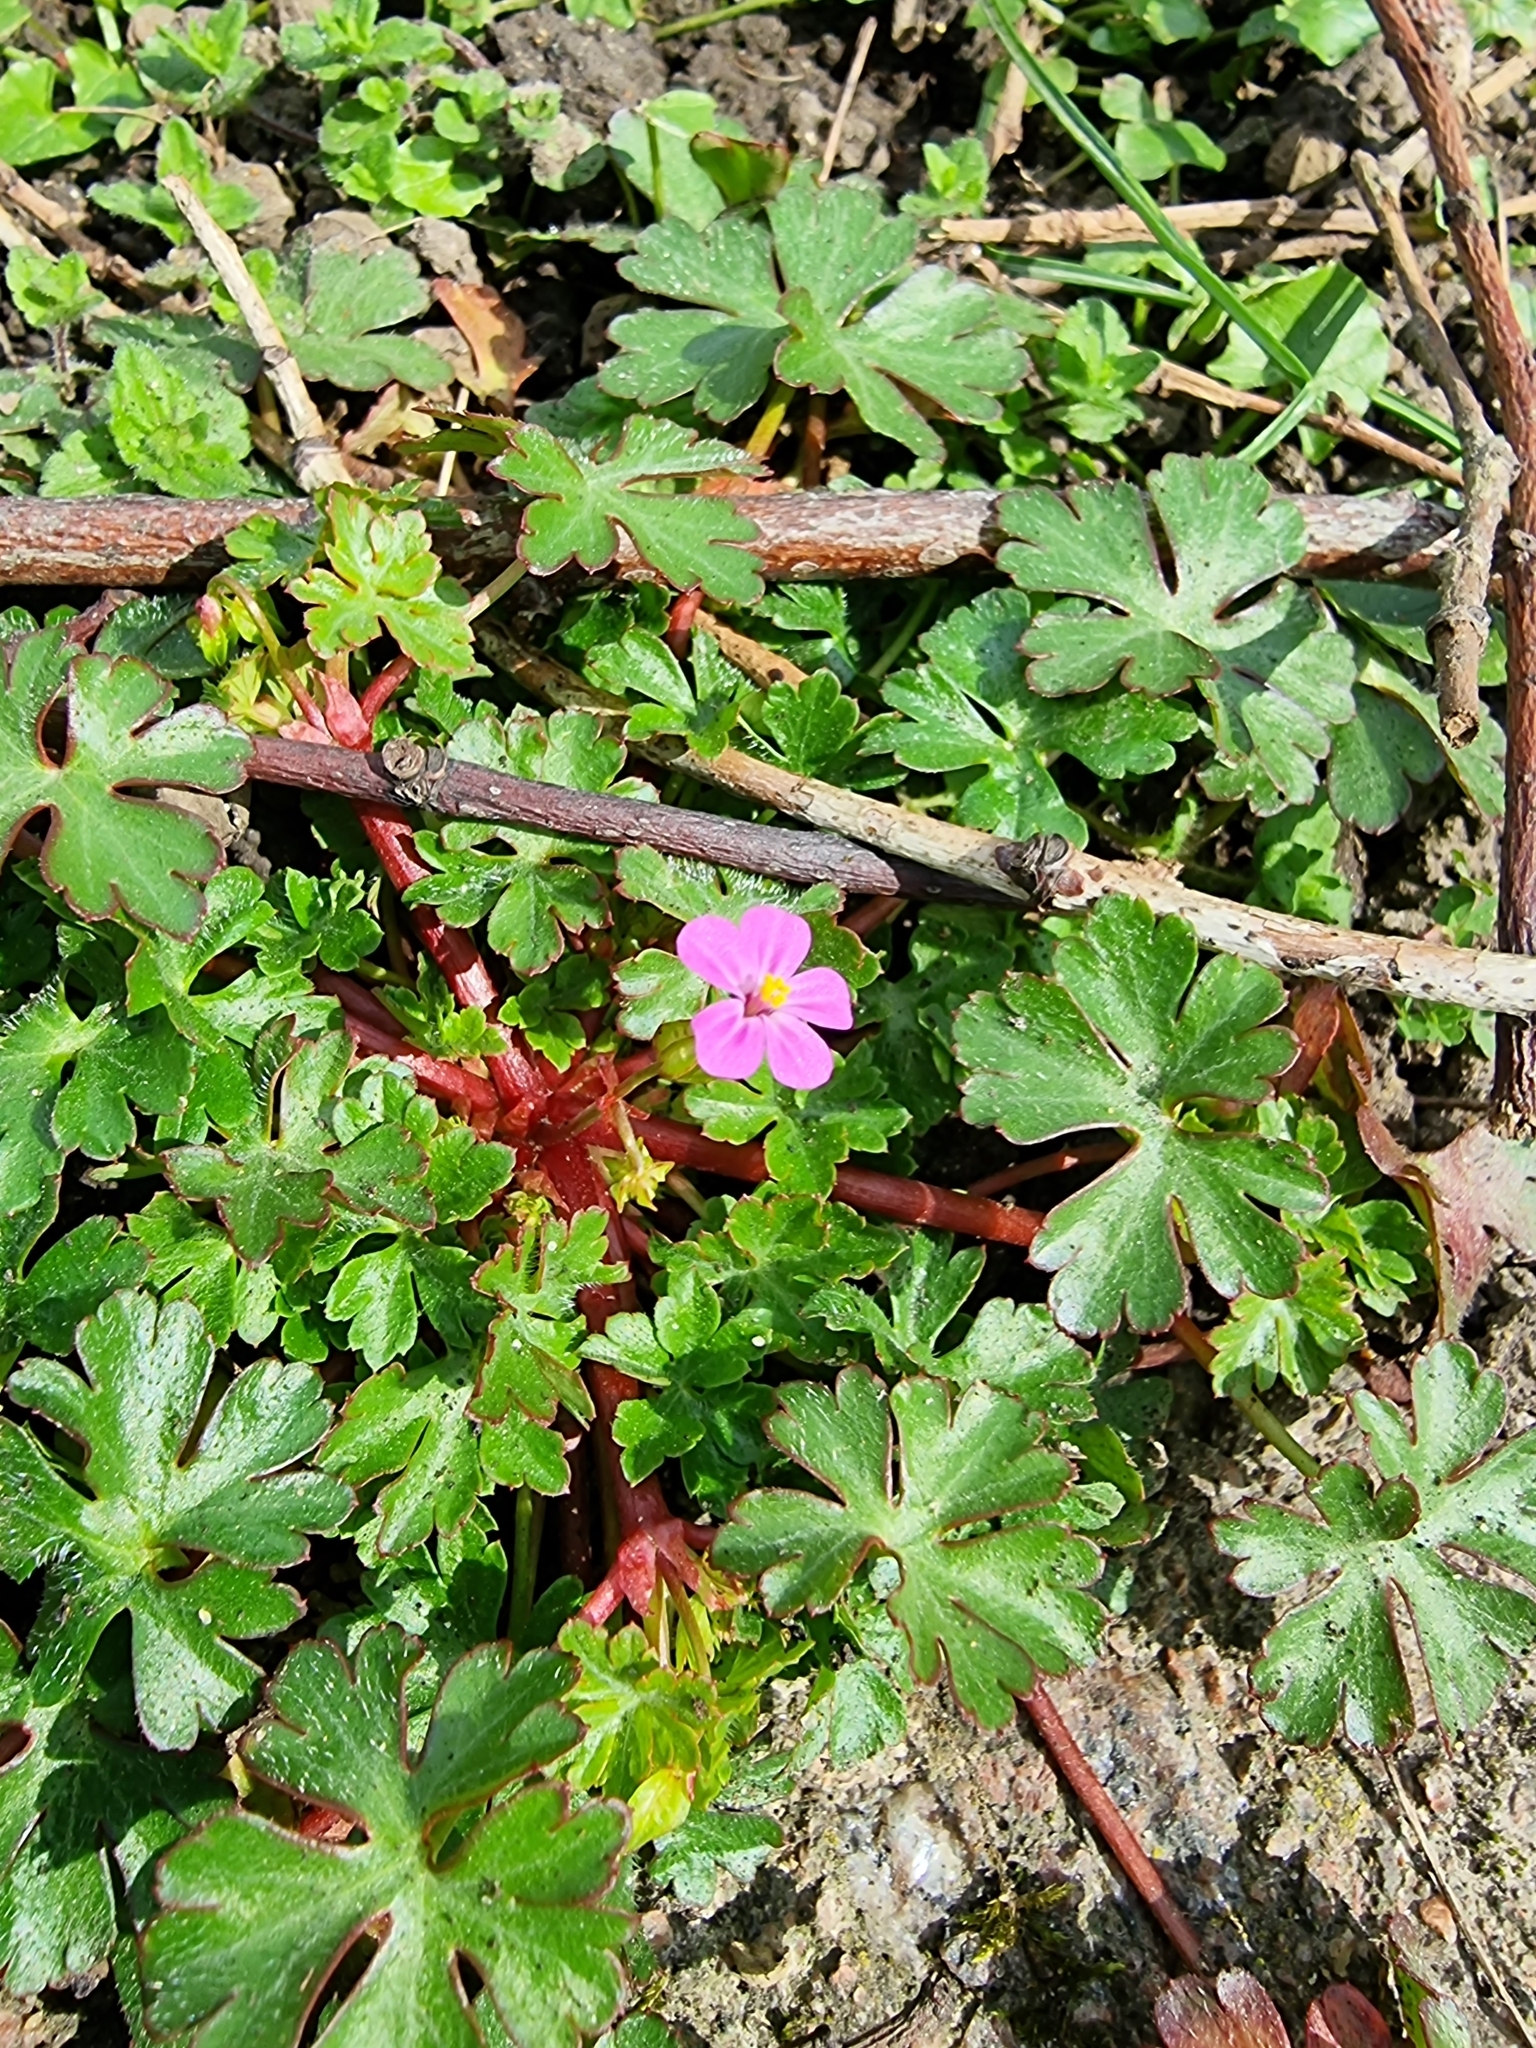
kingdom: Plantae
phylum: Tracheophyta
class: Magnoliopsida
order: Geraniales
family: Geraniaceae
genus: Geranium
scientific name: Geranium lucidum
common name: Shining crane's-bill
